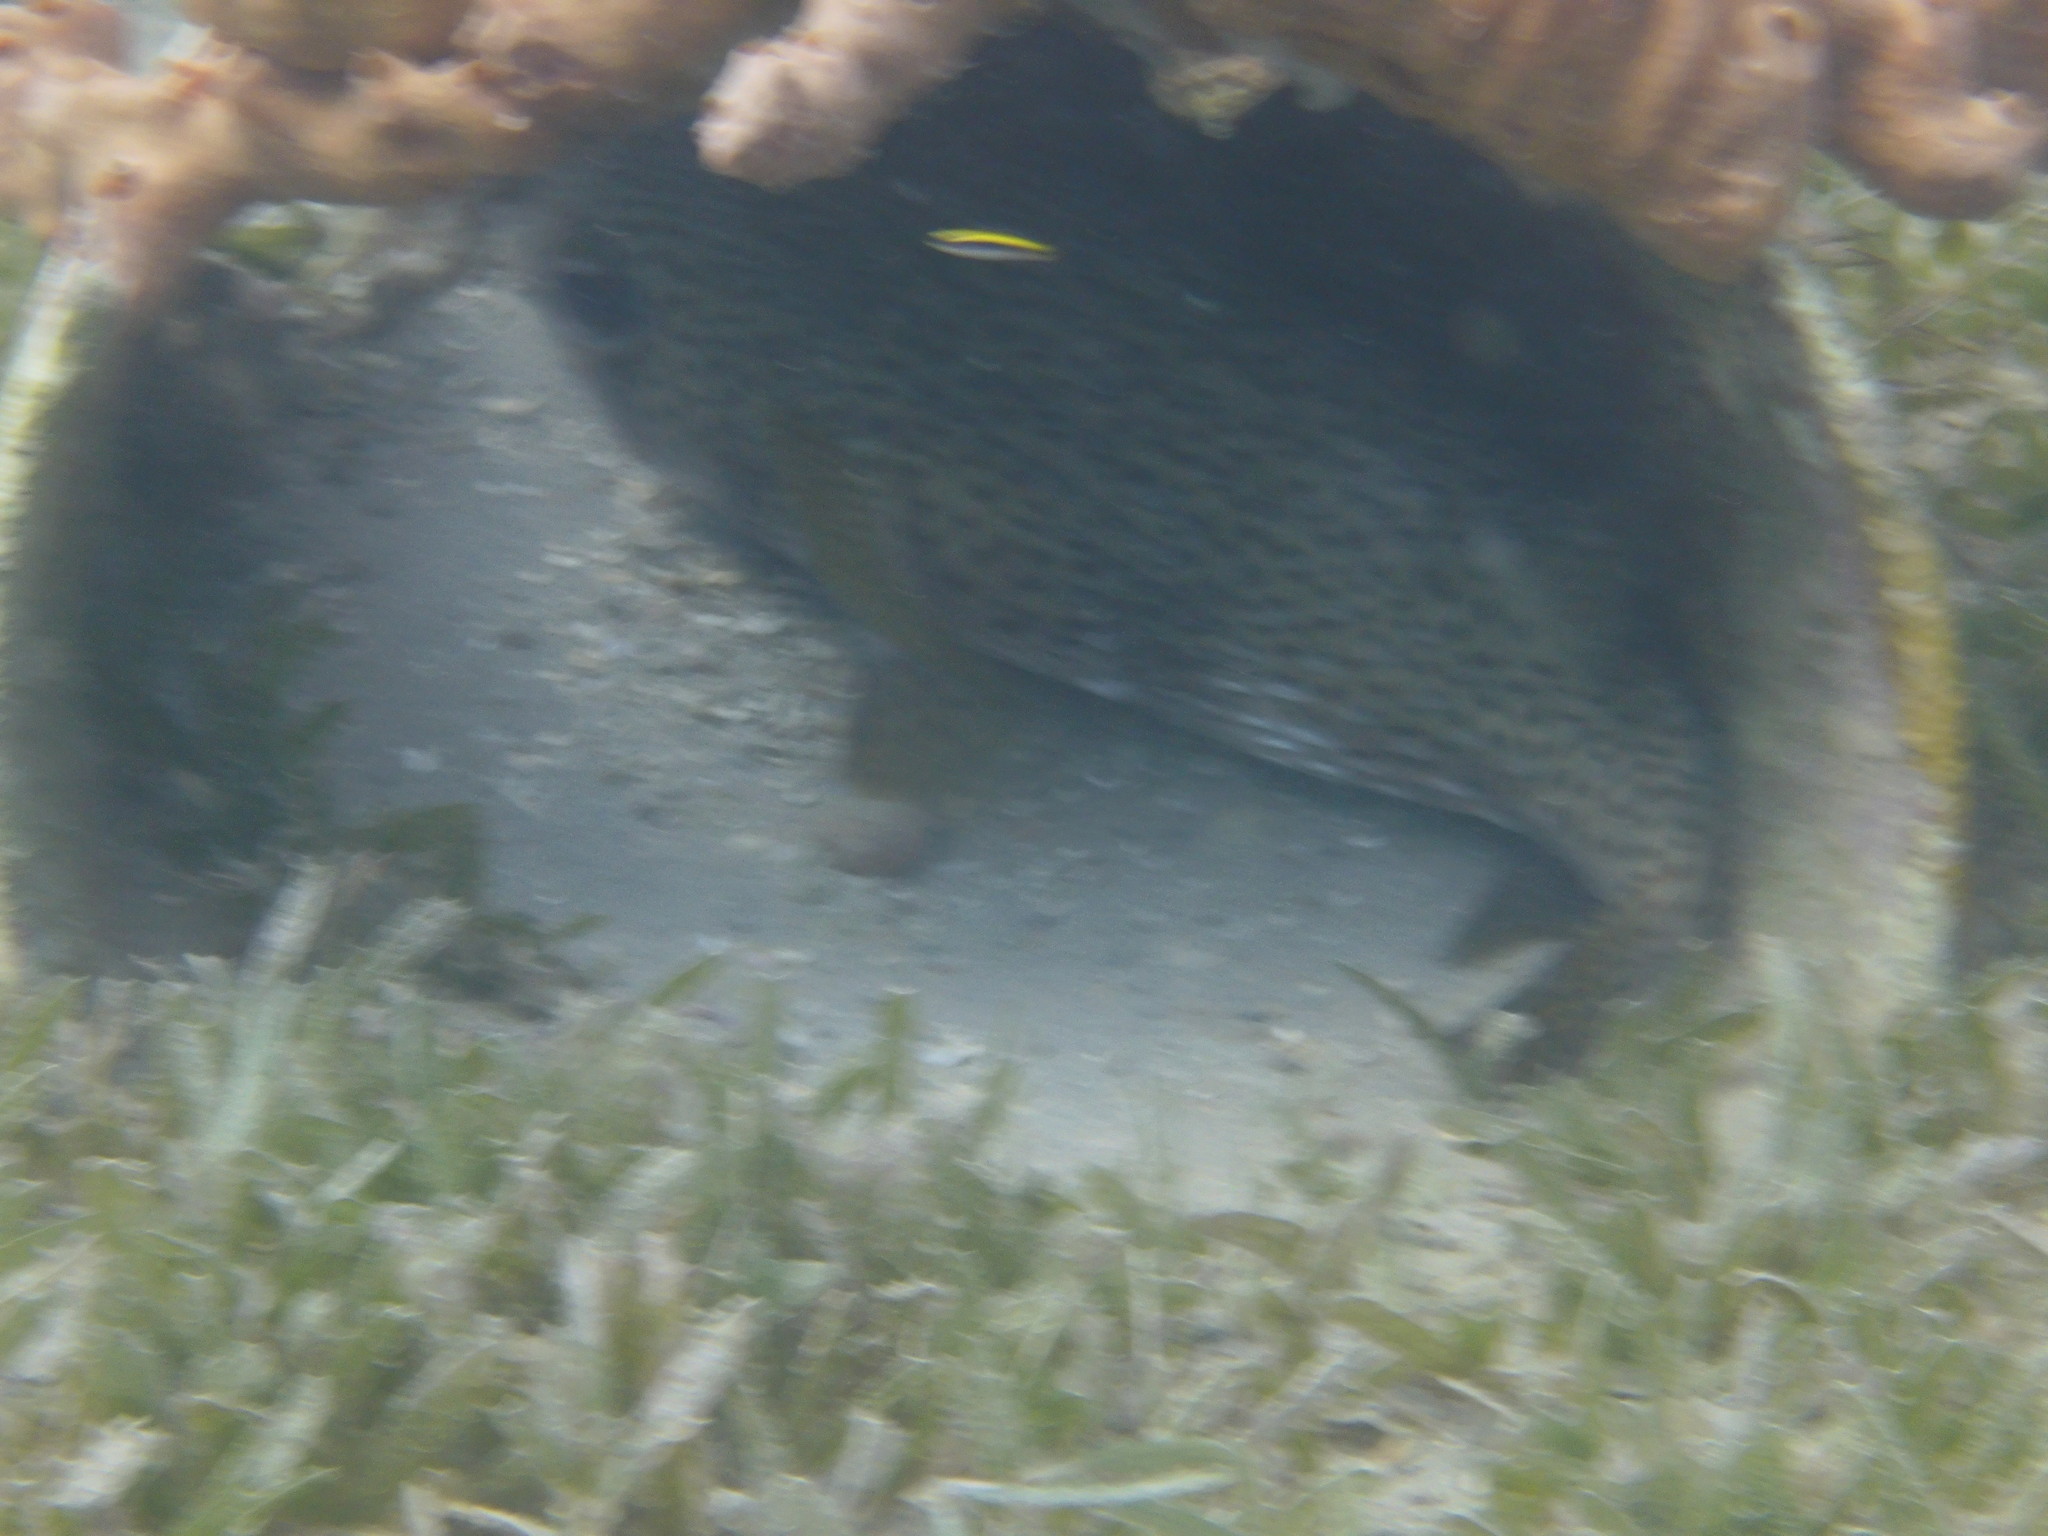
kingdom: Animalia
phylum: Chordata
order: Tetraodontiformes
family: Diodontidae
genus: Diodon
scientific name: Diodon hystrix
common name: Giant porcupinefish
